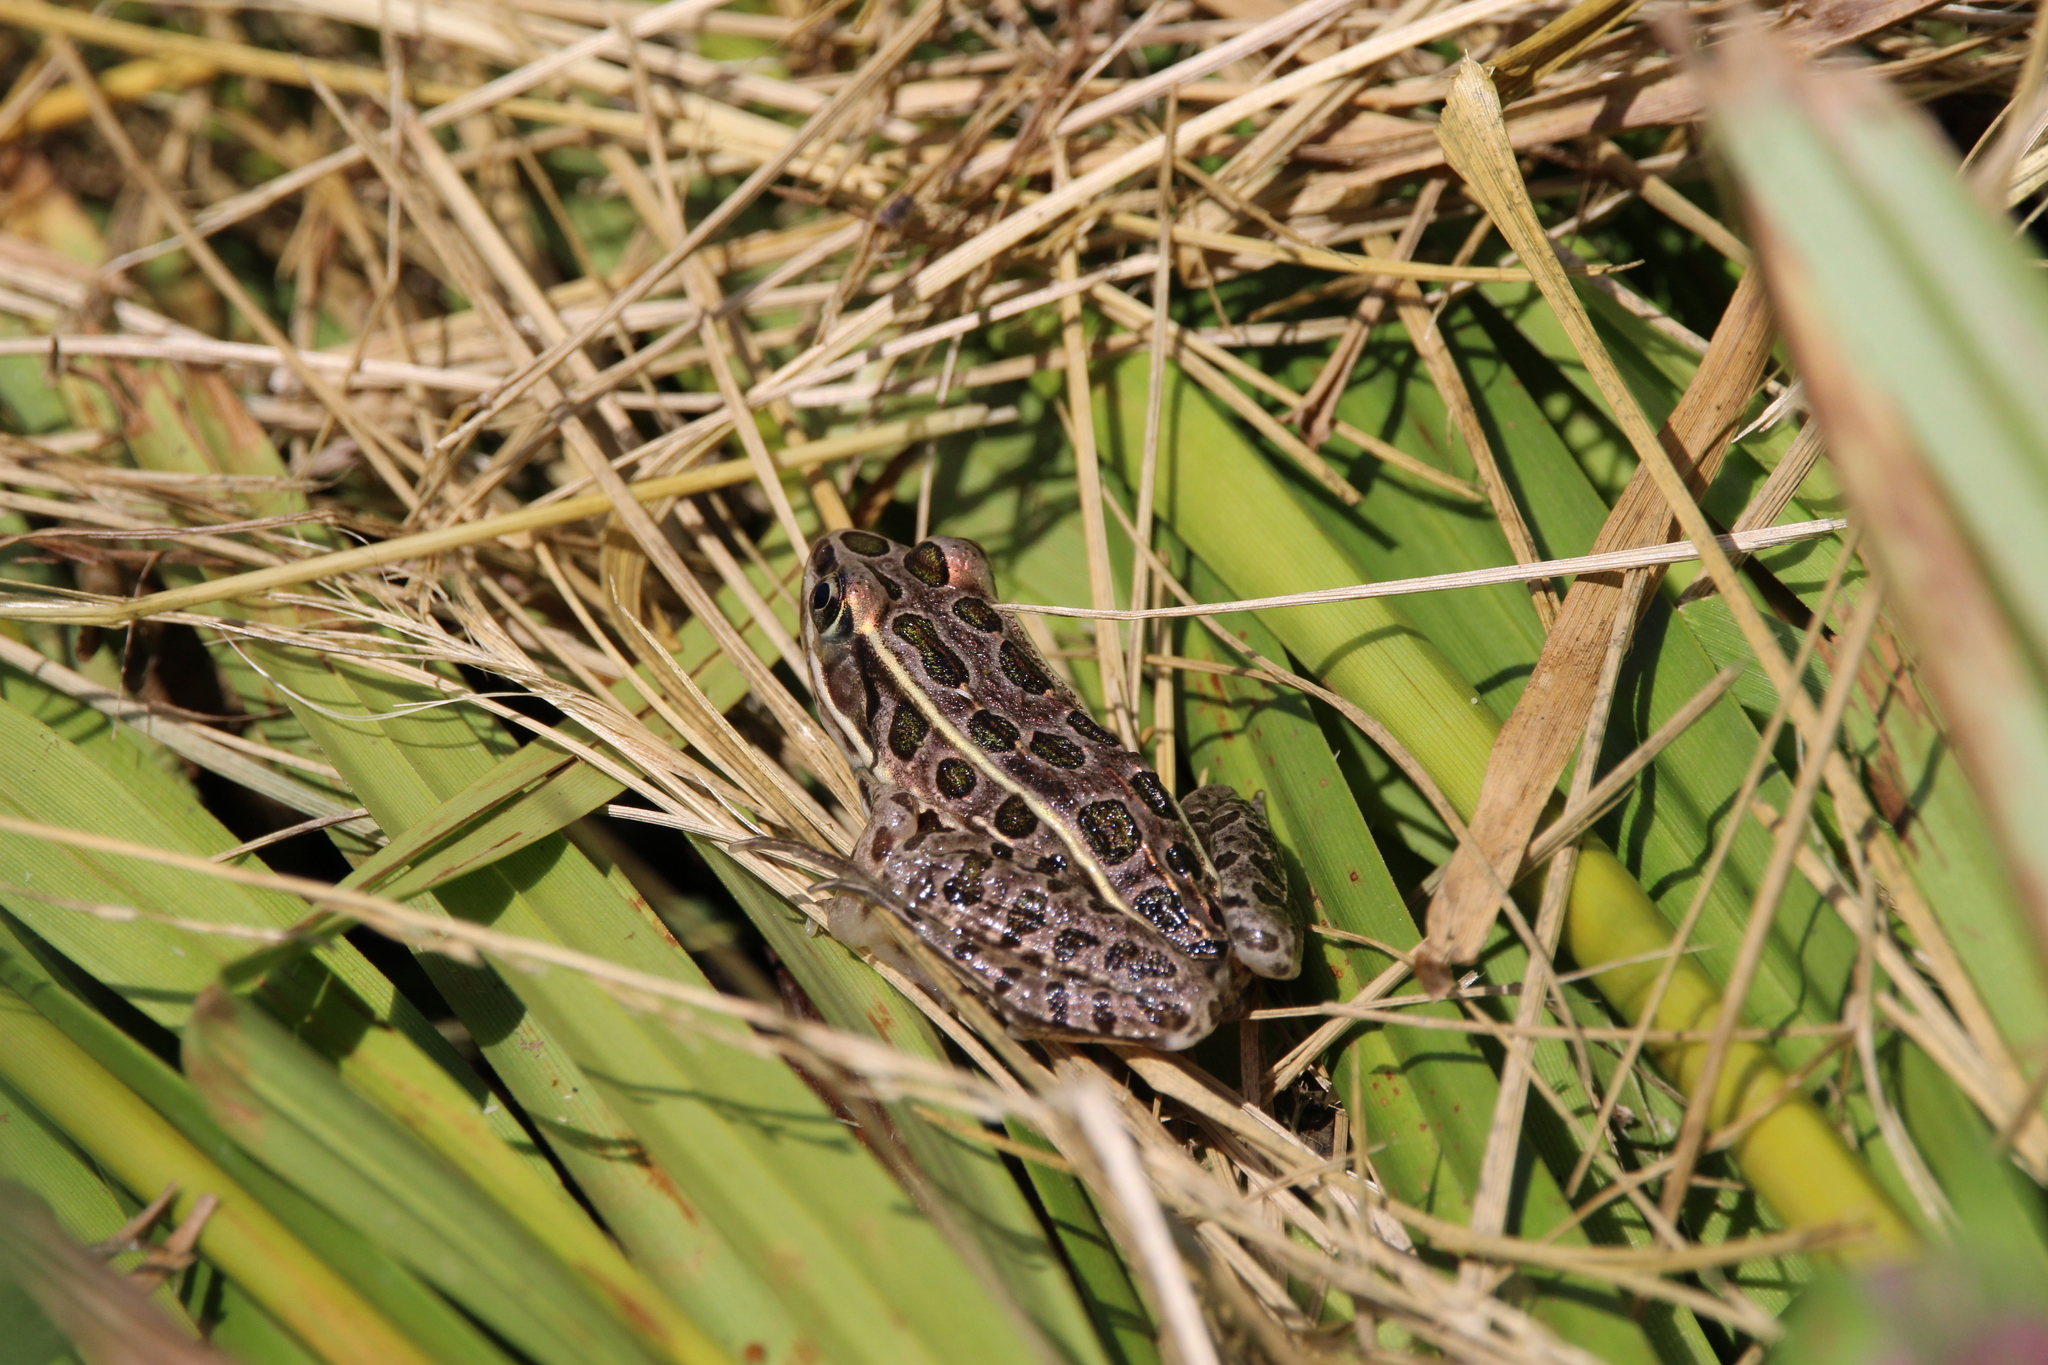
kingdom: Animalia
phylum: Chordata
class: Amphibia
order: Anura
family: Ranidae
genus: Lithobates
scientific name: Lithobates pipiens
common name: Northern leopard frog
